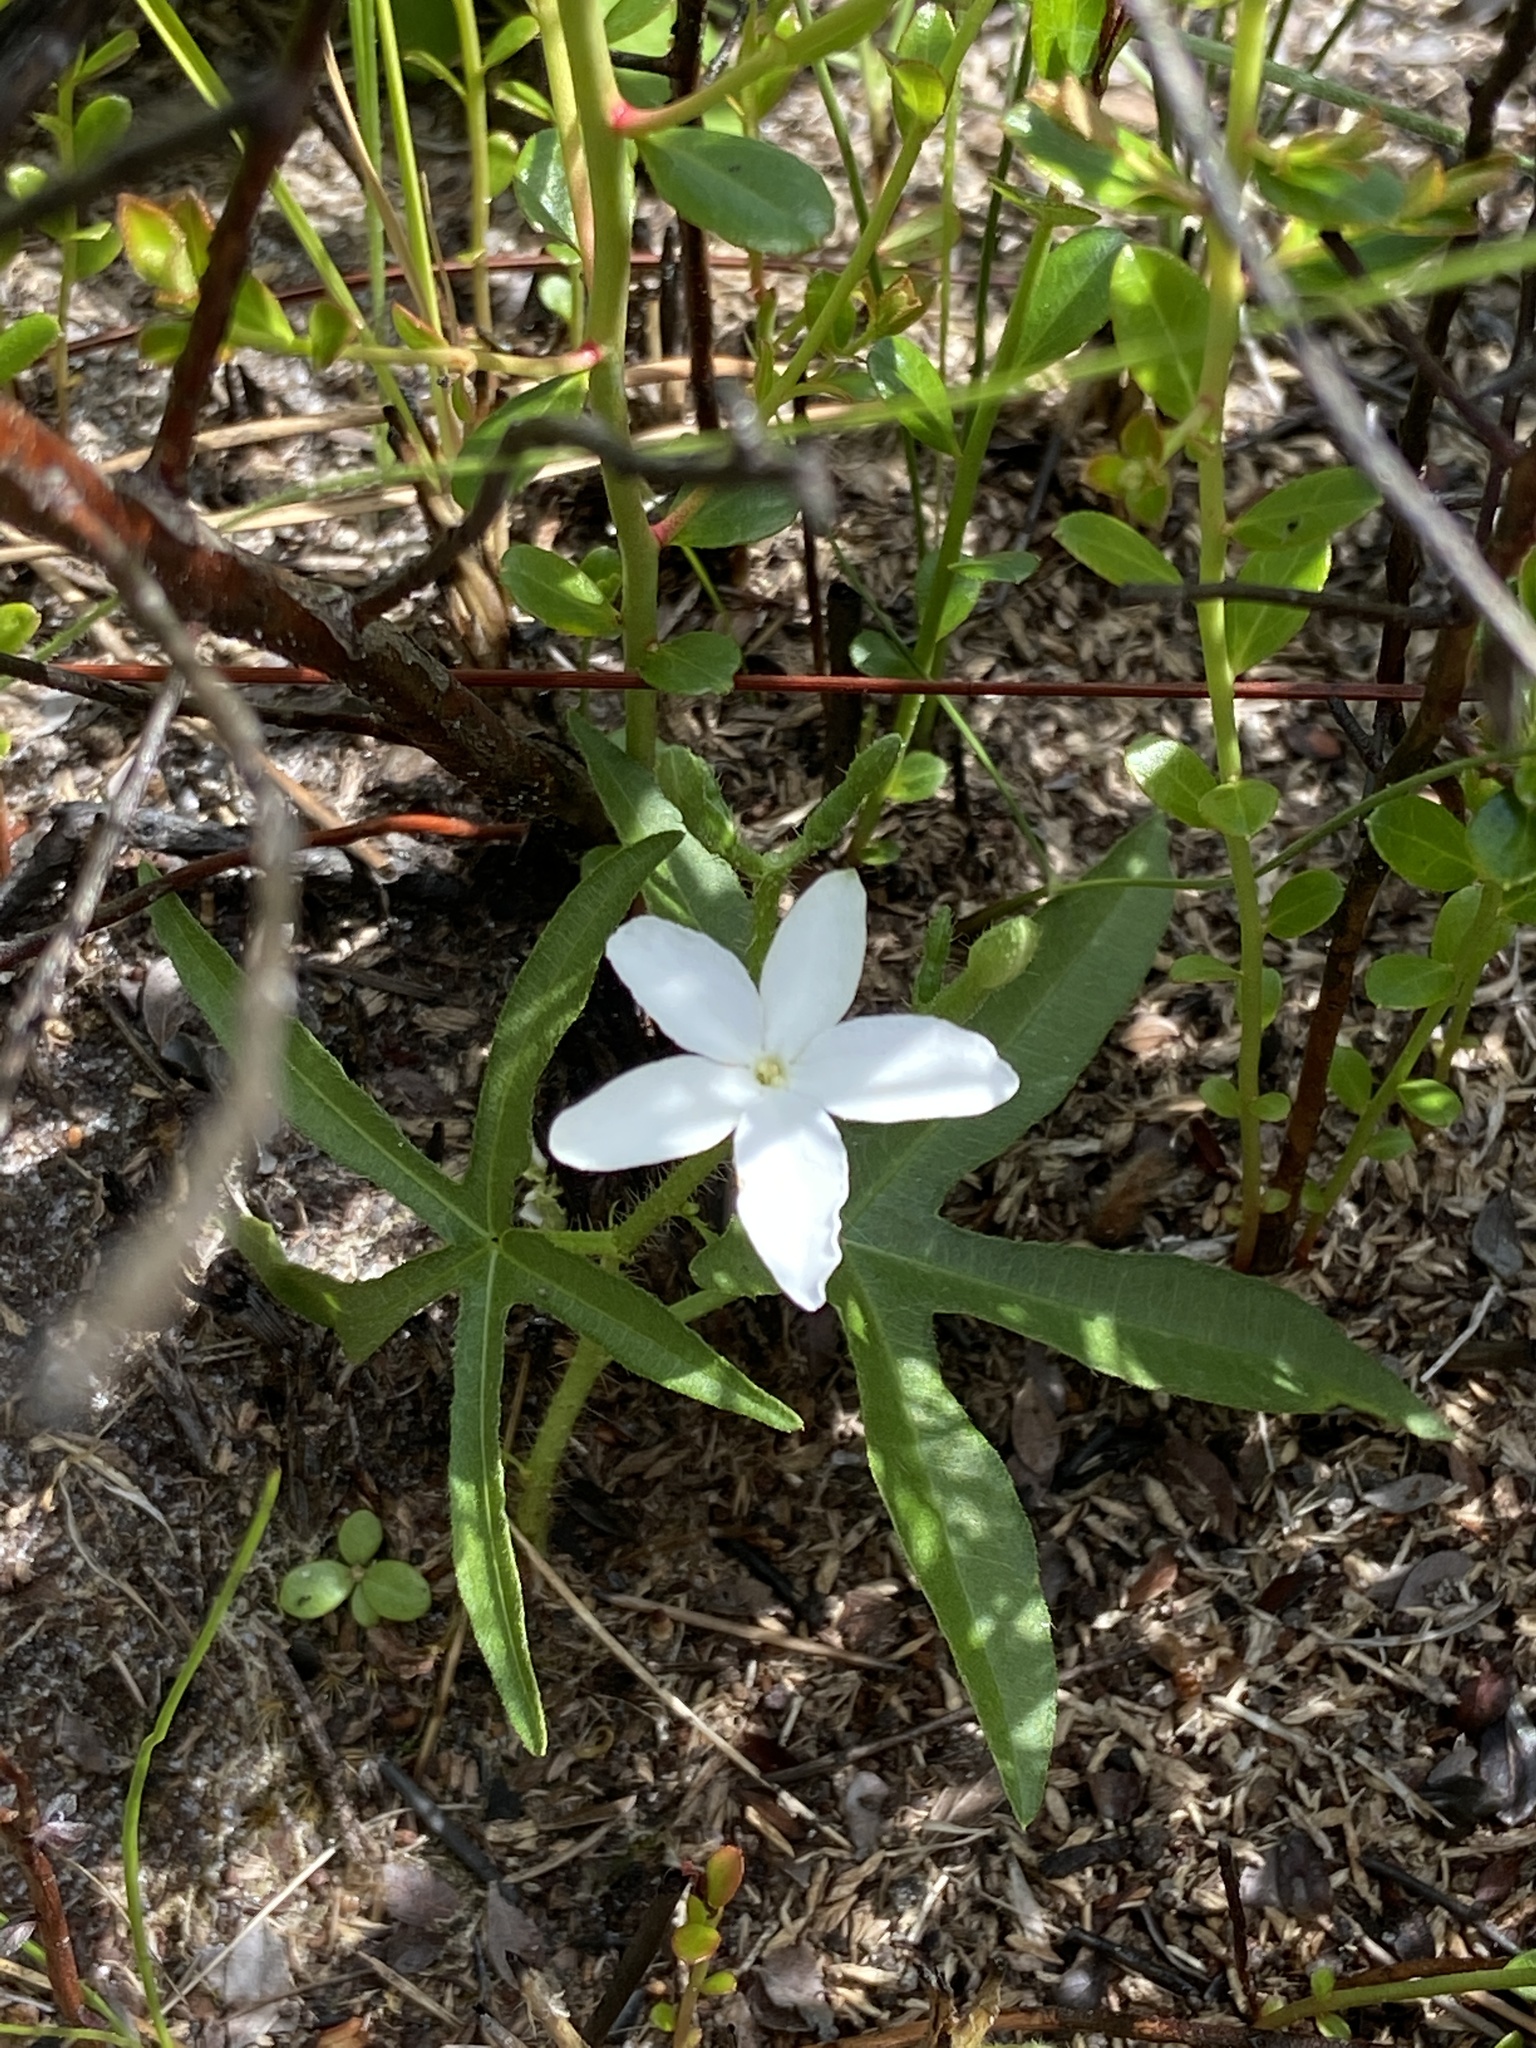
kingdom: Plantae
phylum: Tracheophyta
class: Magnoliopsida
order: Malpighiales
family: Euphorbiaceae
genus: Cnidoscolus
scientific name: Cnidoscolus stimulosus
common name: Bull-nettle
